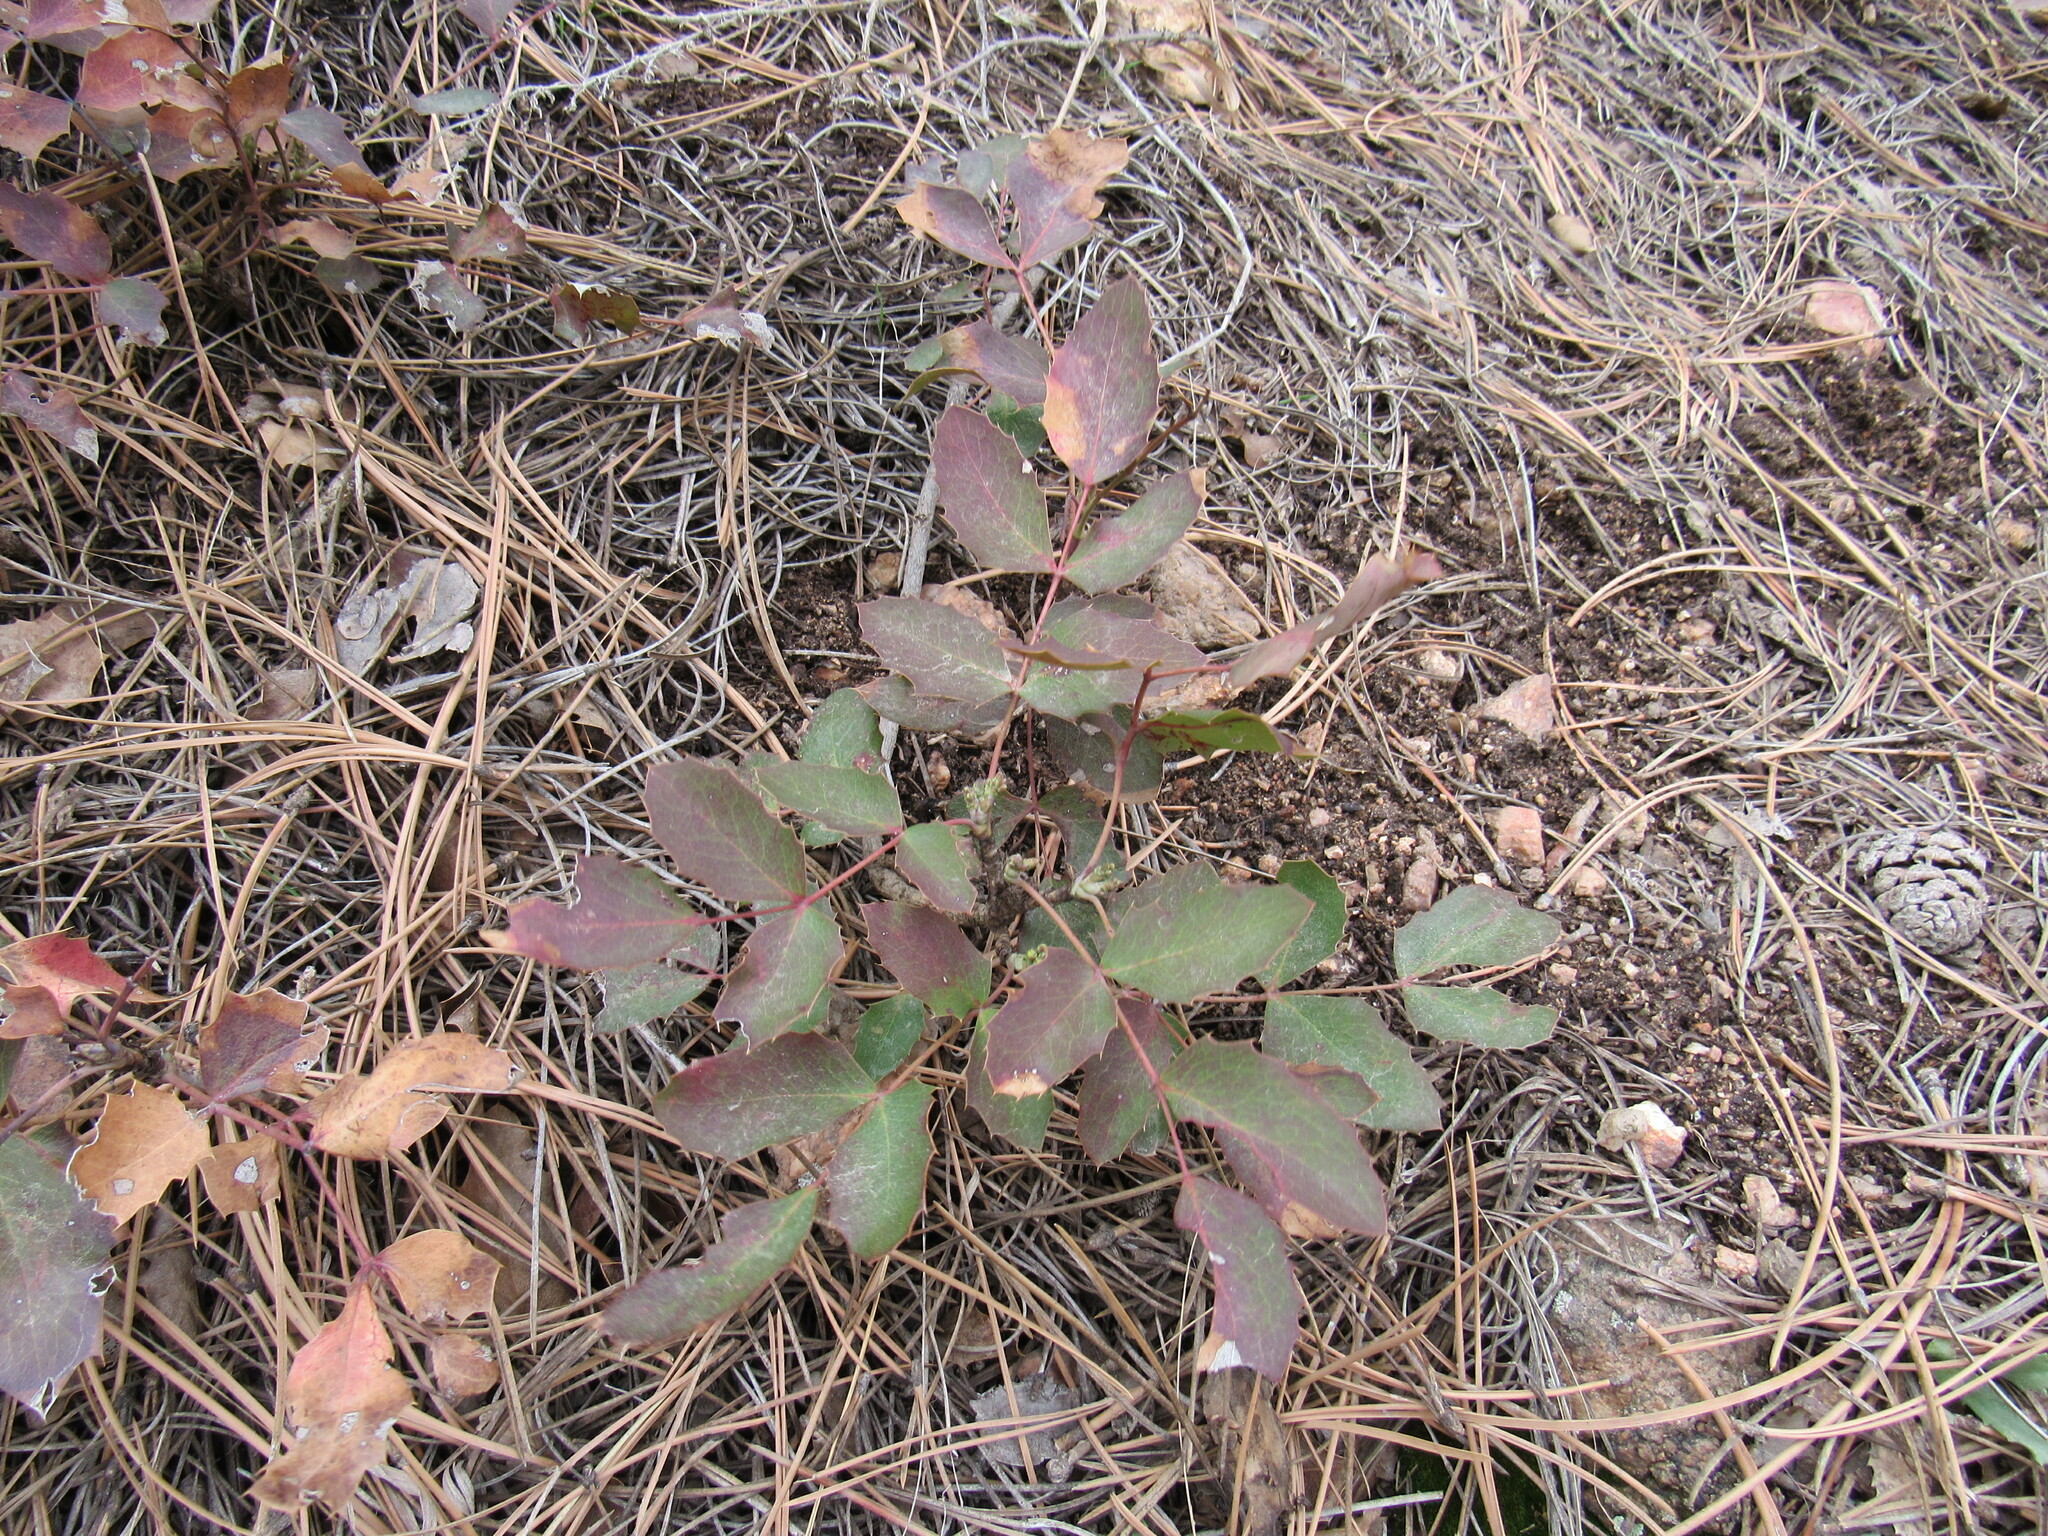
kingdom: Plantae
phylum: Tracheophyta
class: Magnoliopsida
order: Ranunculales
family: Berberidaceae
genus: Mahonia
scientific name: Mahonia repens
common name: Creeping oregon-grape
